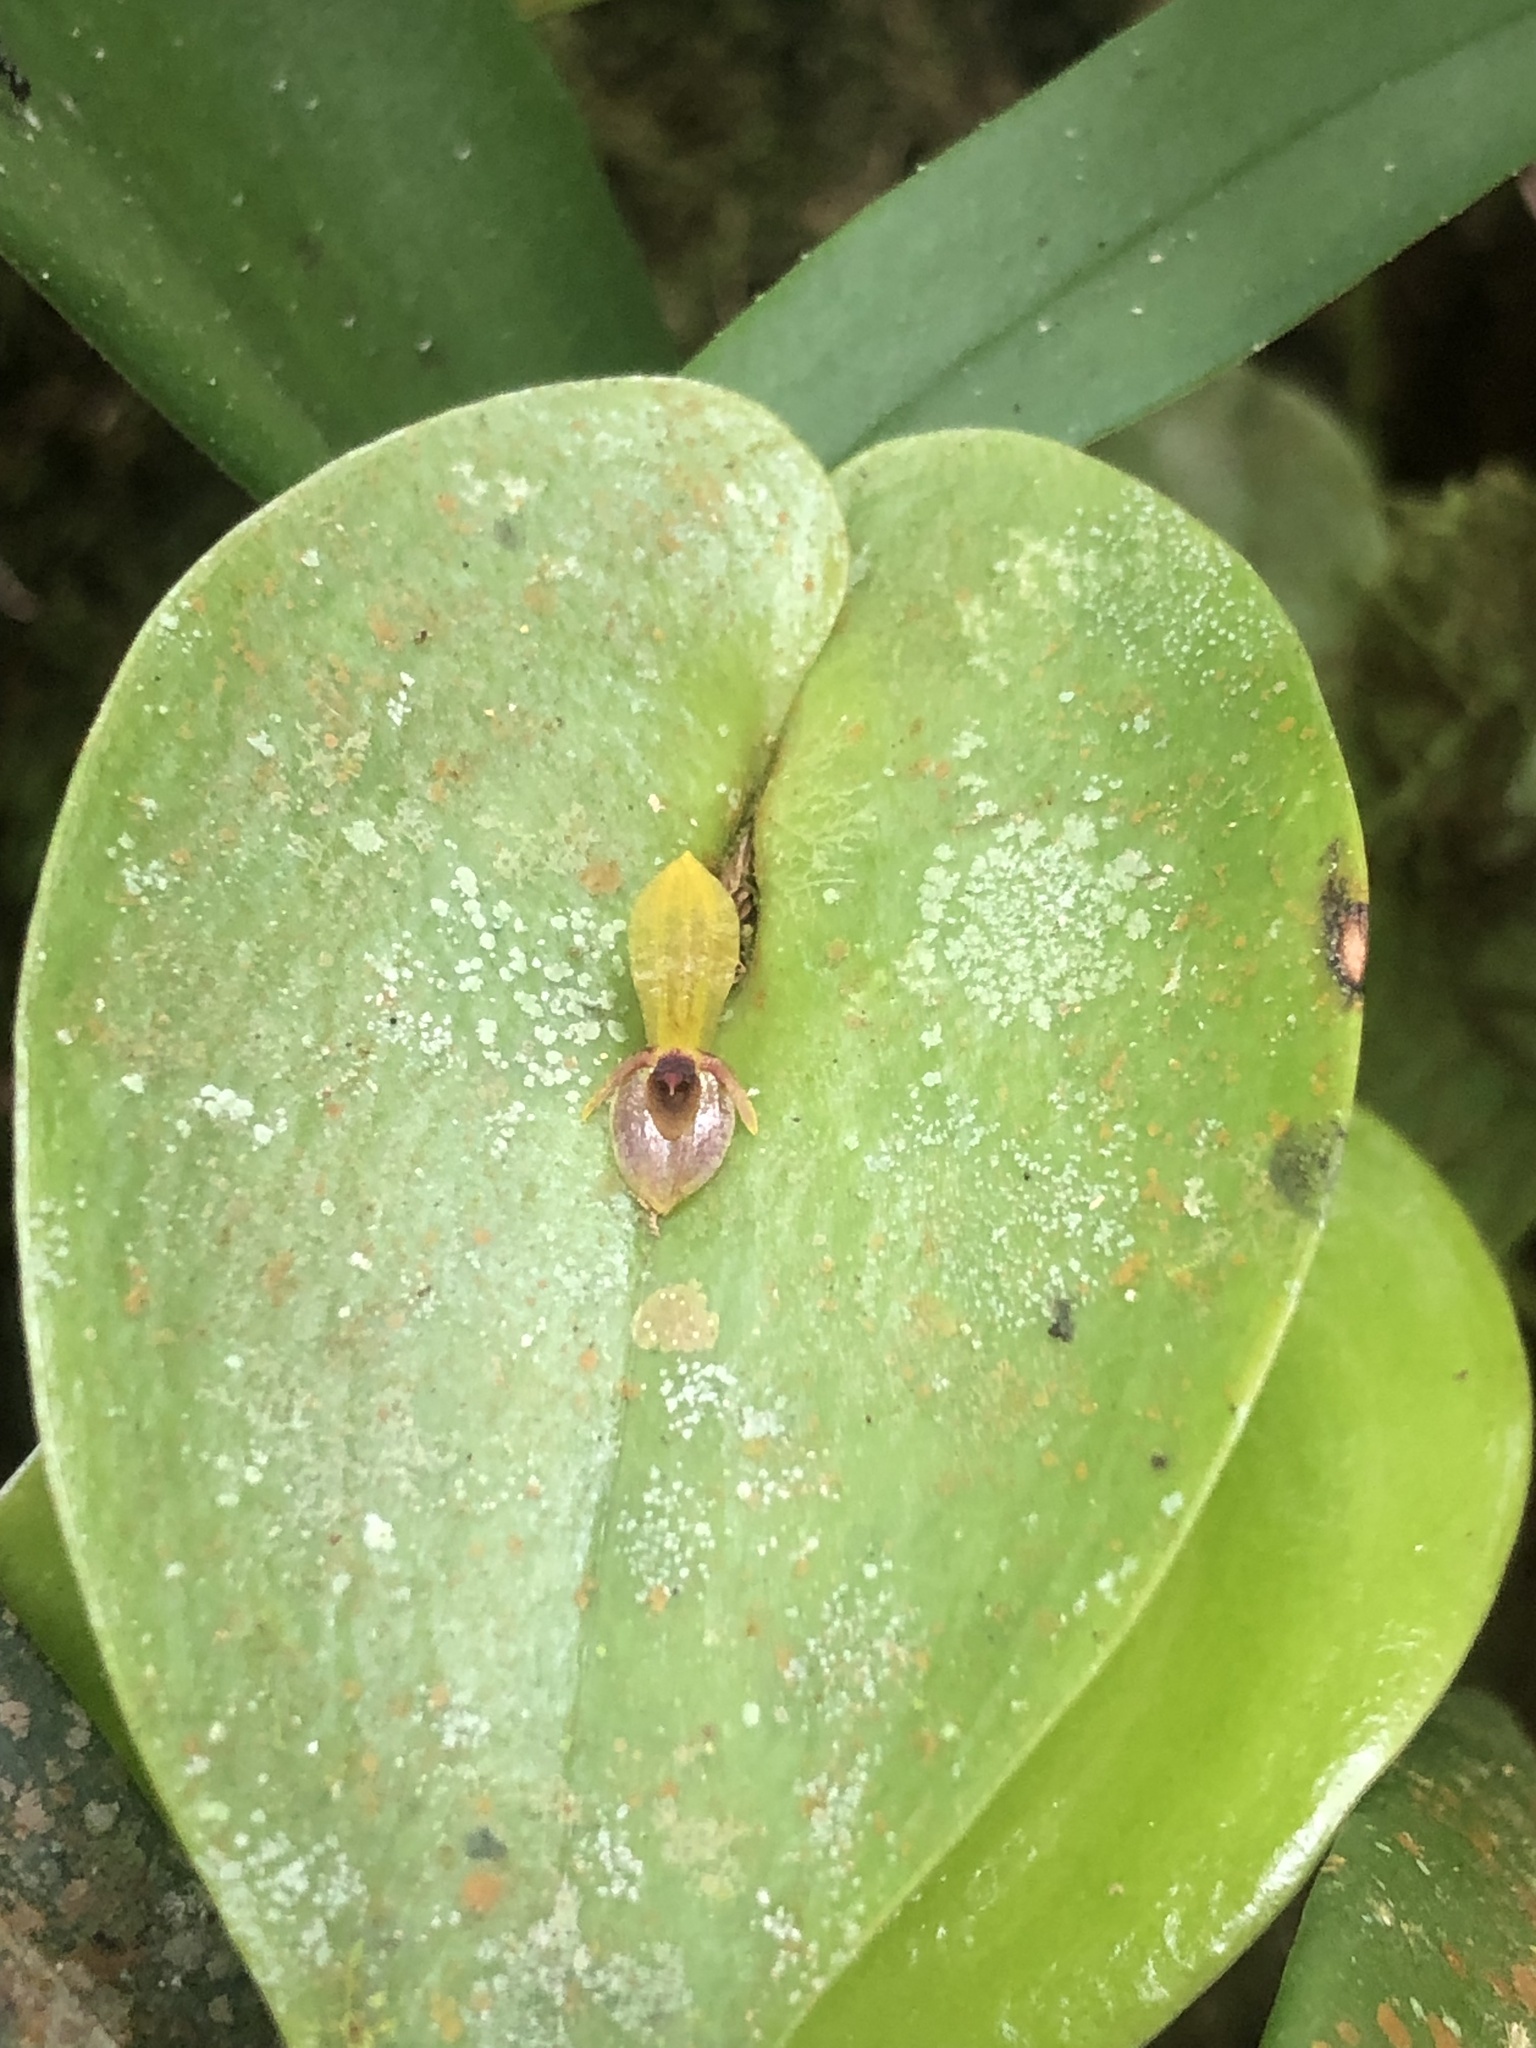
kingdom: Plantae
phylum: Tracheophyta
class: Liliopsida
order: Asparagales
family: Orchidaceae
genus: Pleurothallis
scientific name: Pleurothallis rhodoglossa
